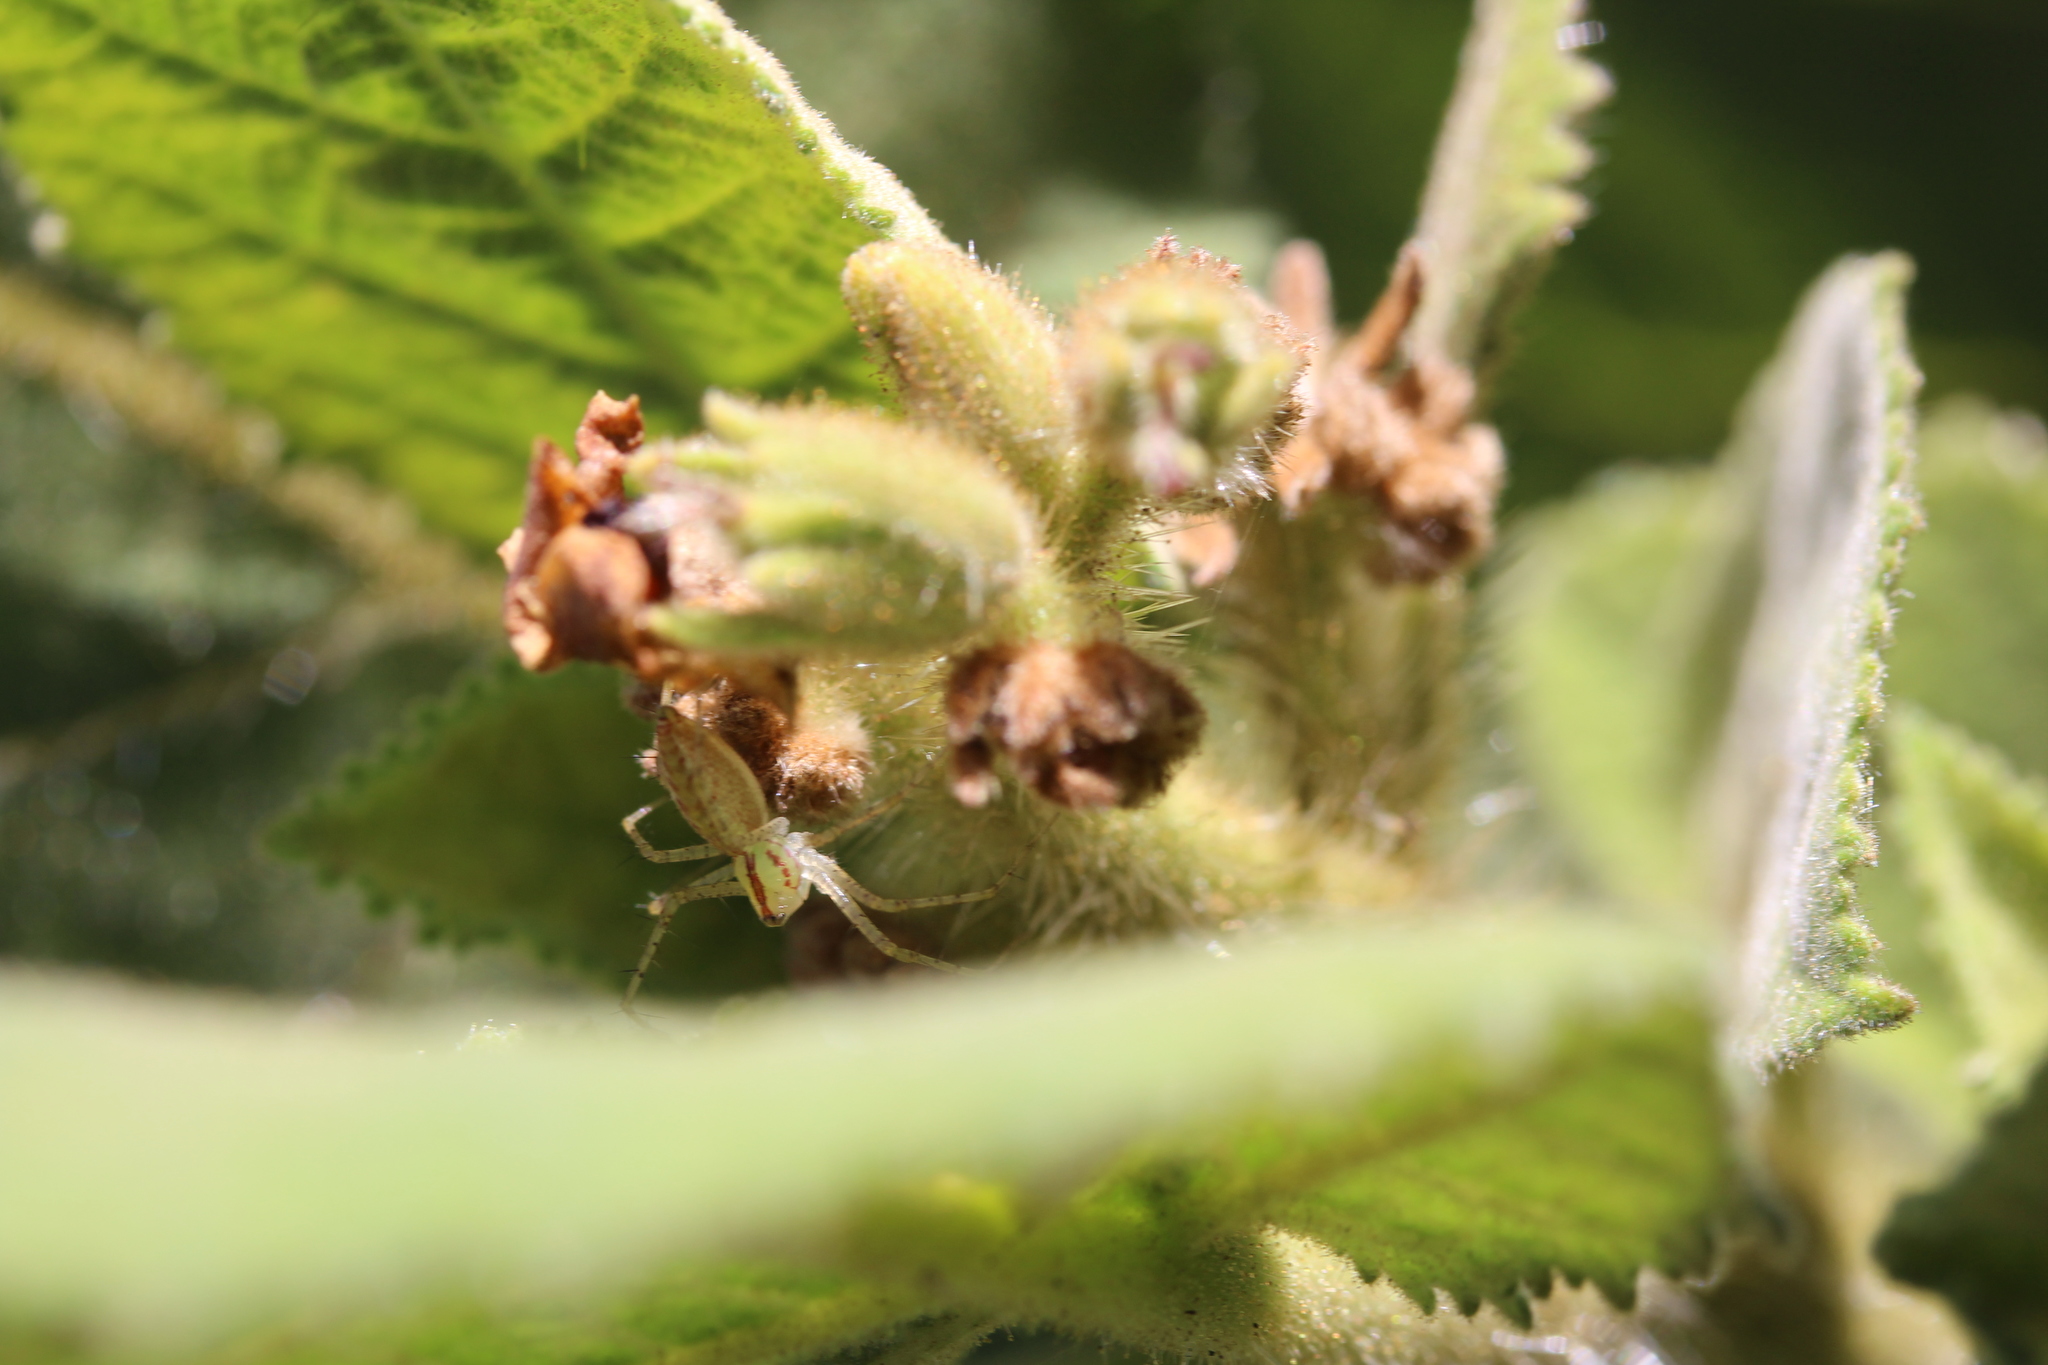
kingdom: Animalia
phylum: Arthropoda
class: Arachnida
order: Araneae
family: Oxyopidae
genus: Peucetia
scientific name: Peucetia
